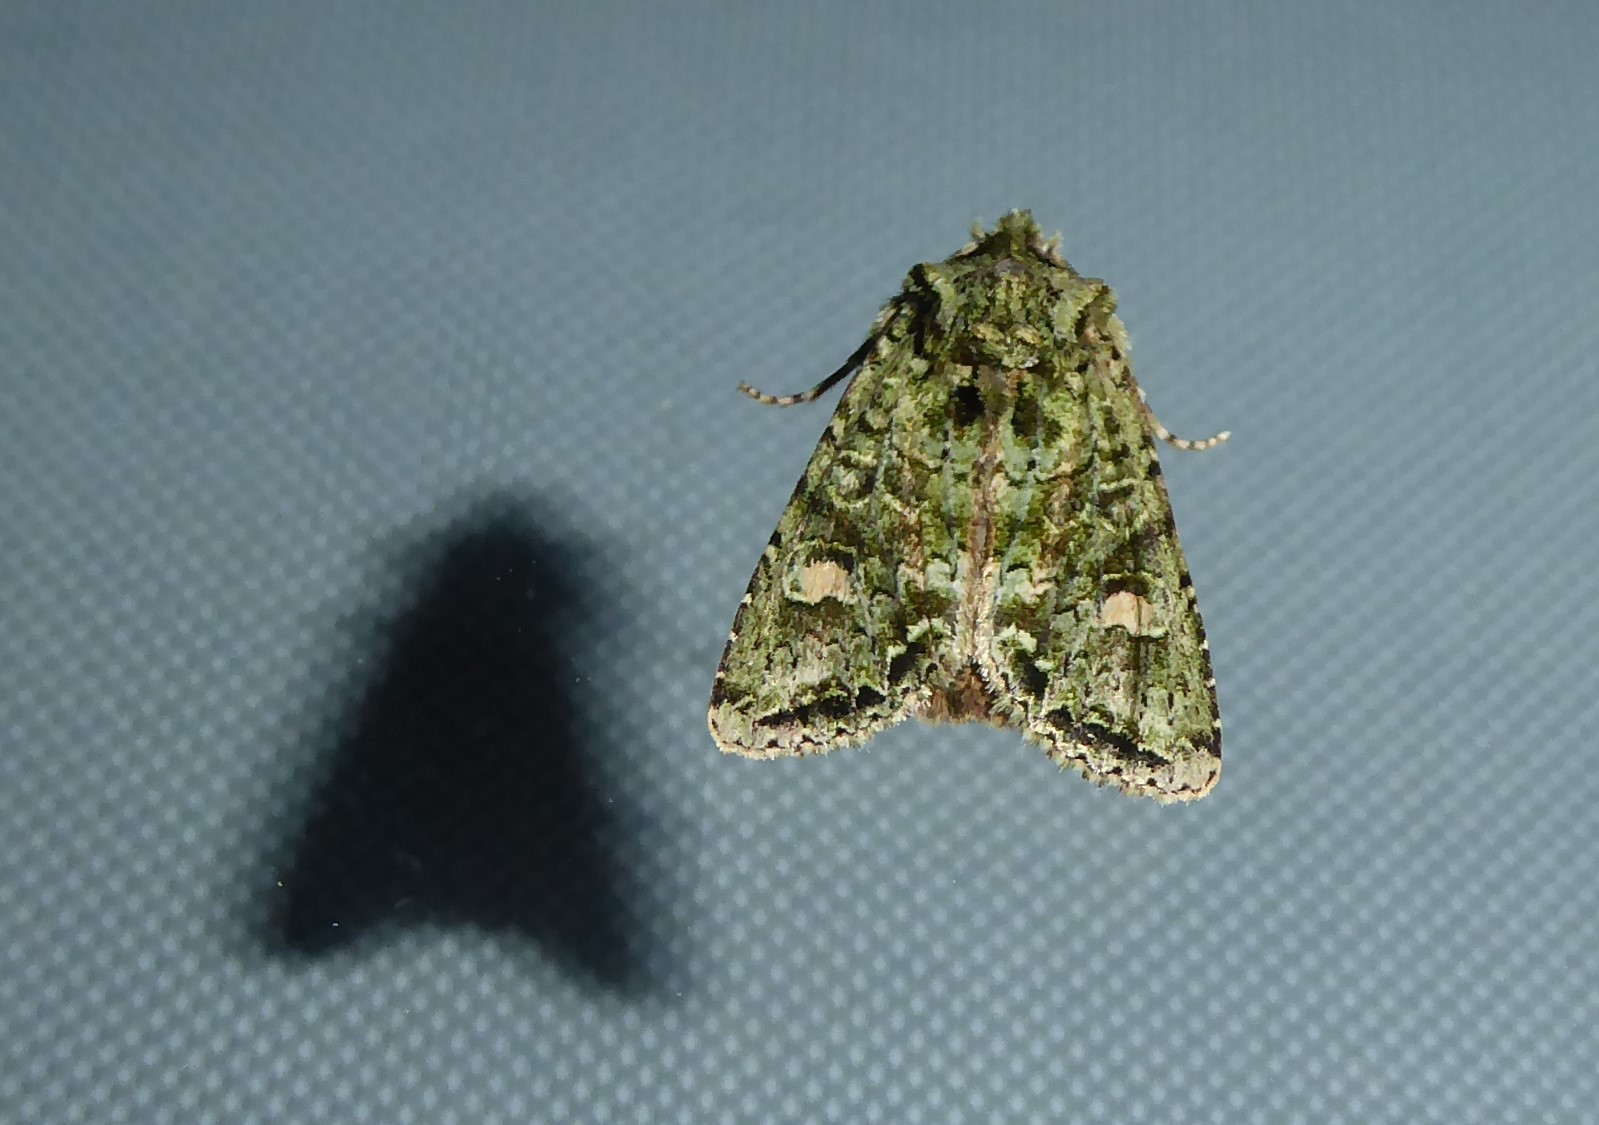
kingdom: Animalia
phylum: Arthropoda
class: Insecta
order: Lepidoptera
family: Noctuidae
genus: Ichneutica
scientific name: Ichneutica
